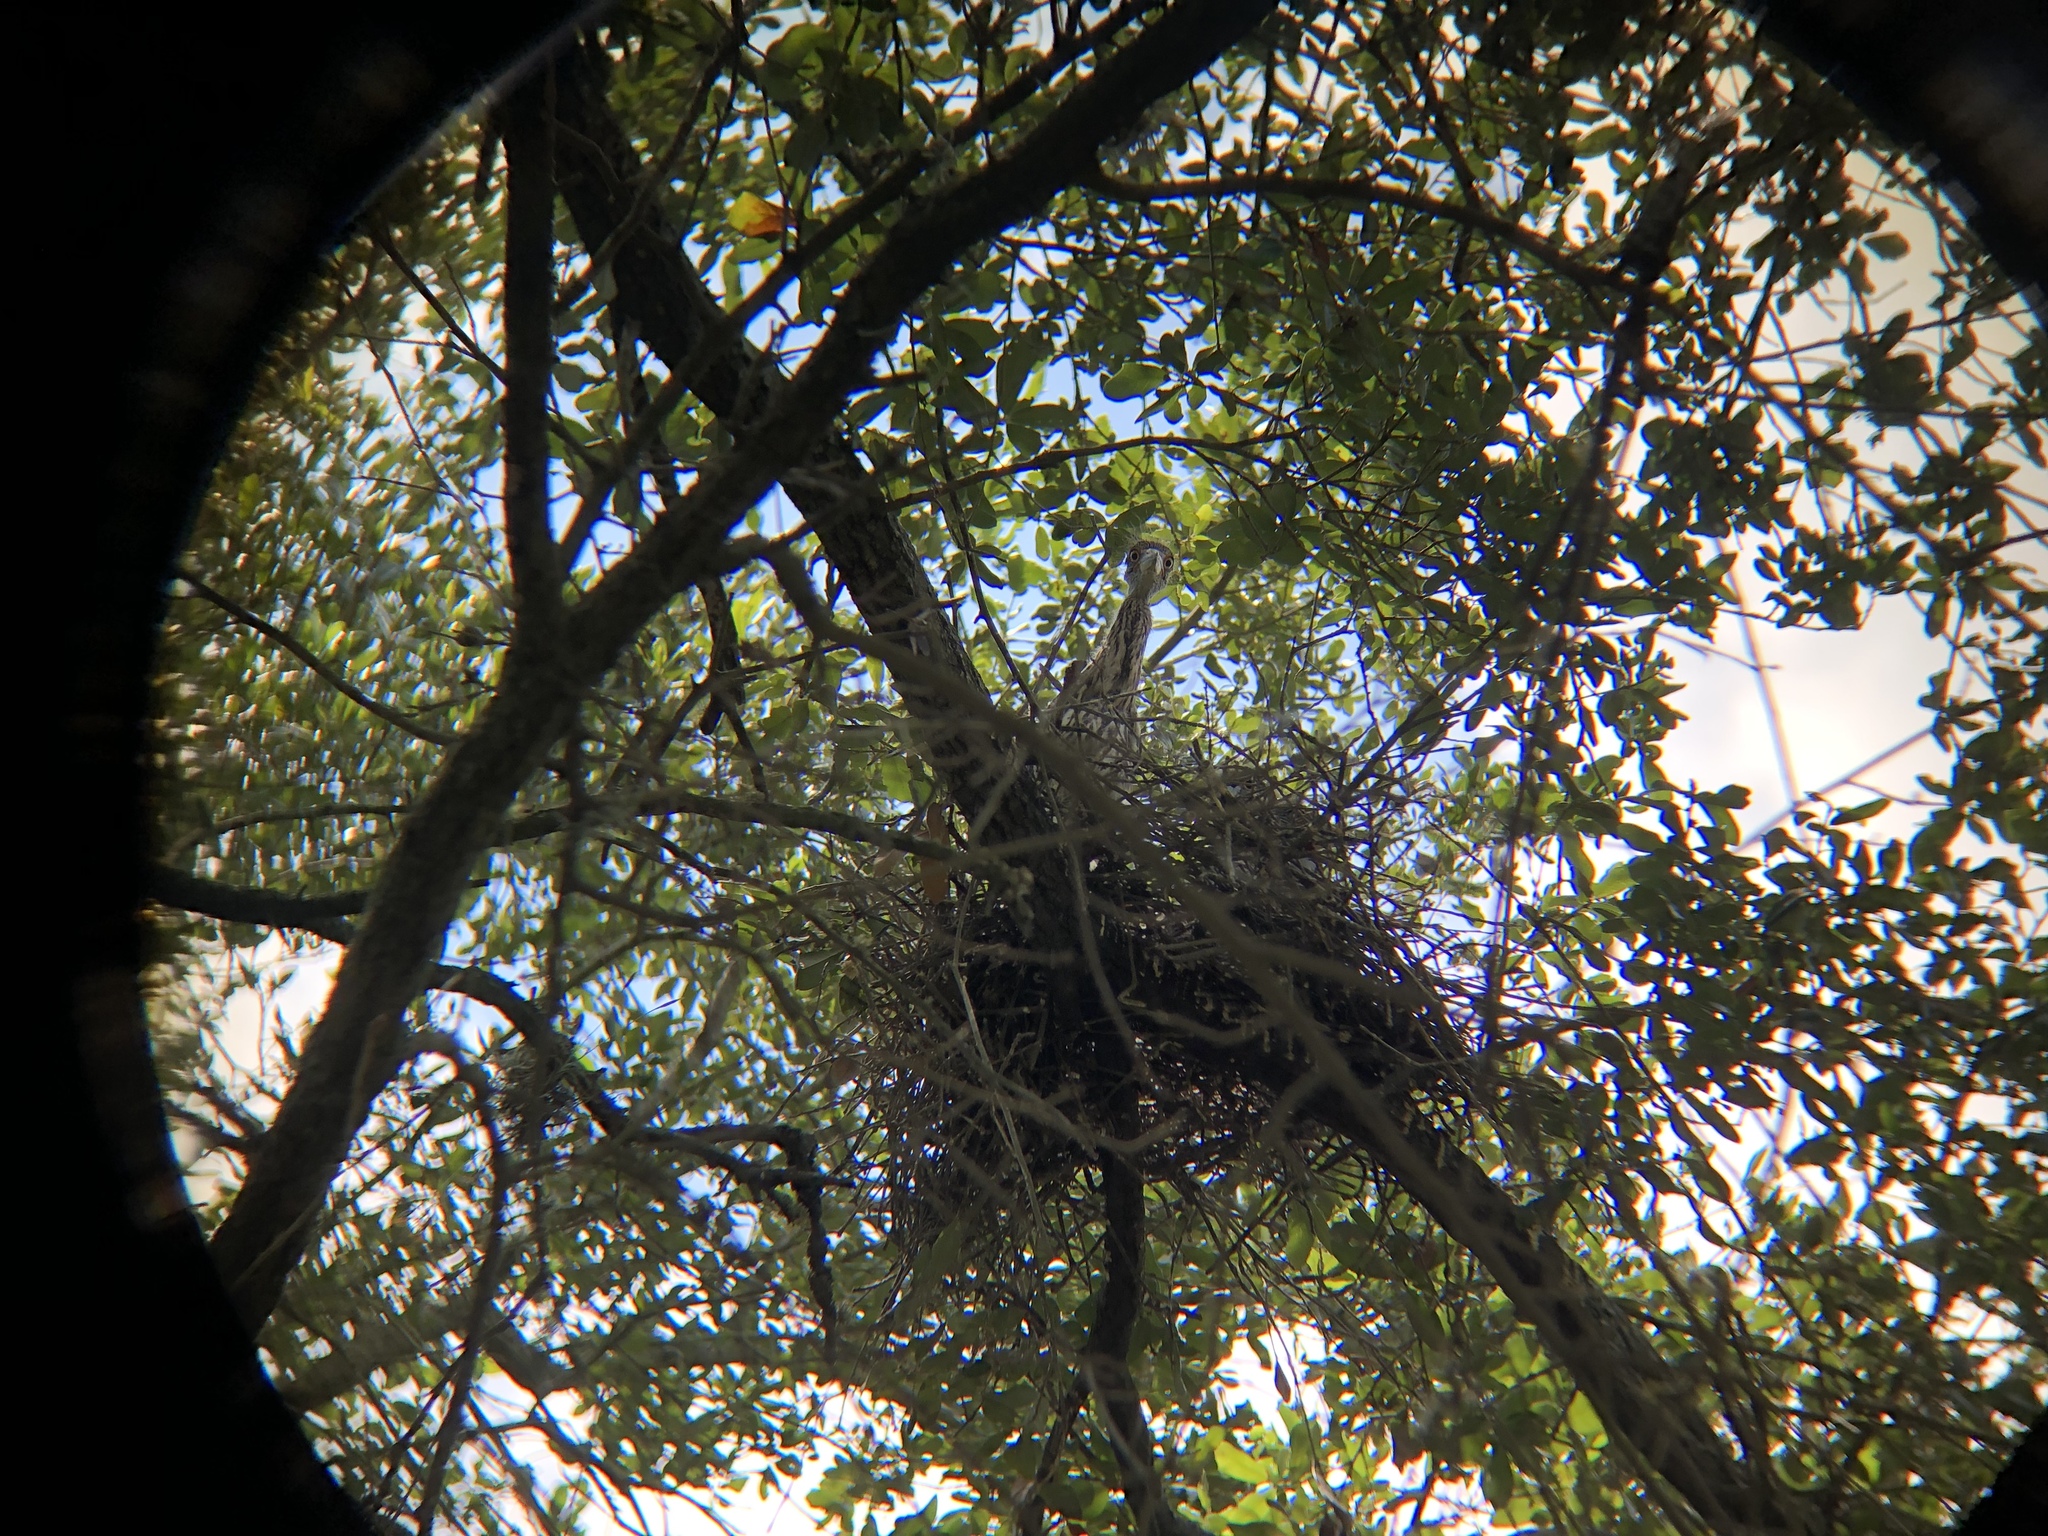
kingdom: Animalia
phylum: Chordata
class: Aves
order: Pelecaniformes
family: Ardeidae
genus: Nyctanassa
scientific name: Nyctanassa violacea
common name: Yellow-crowned night heron
